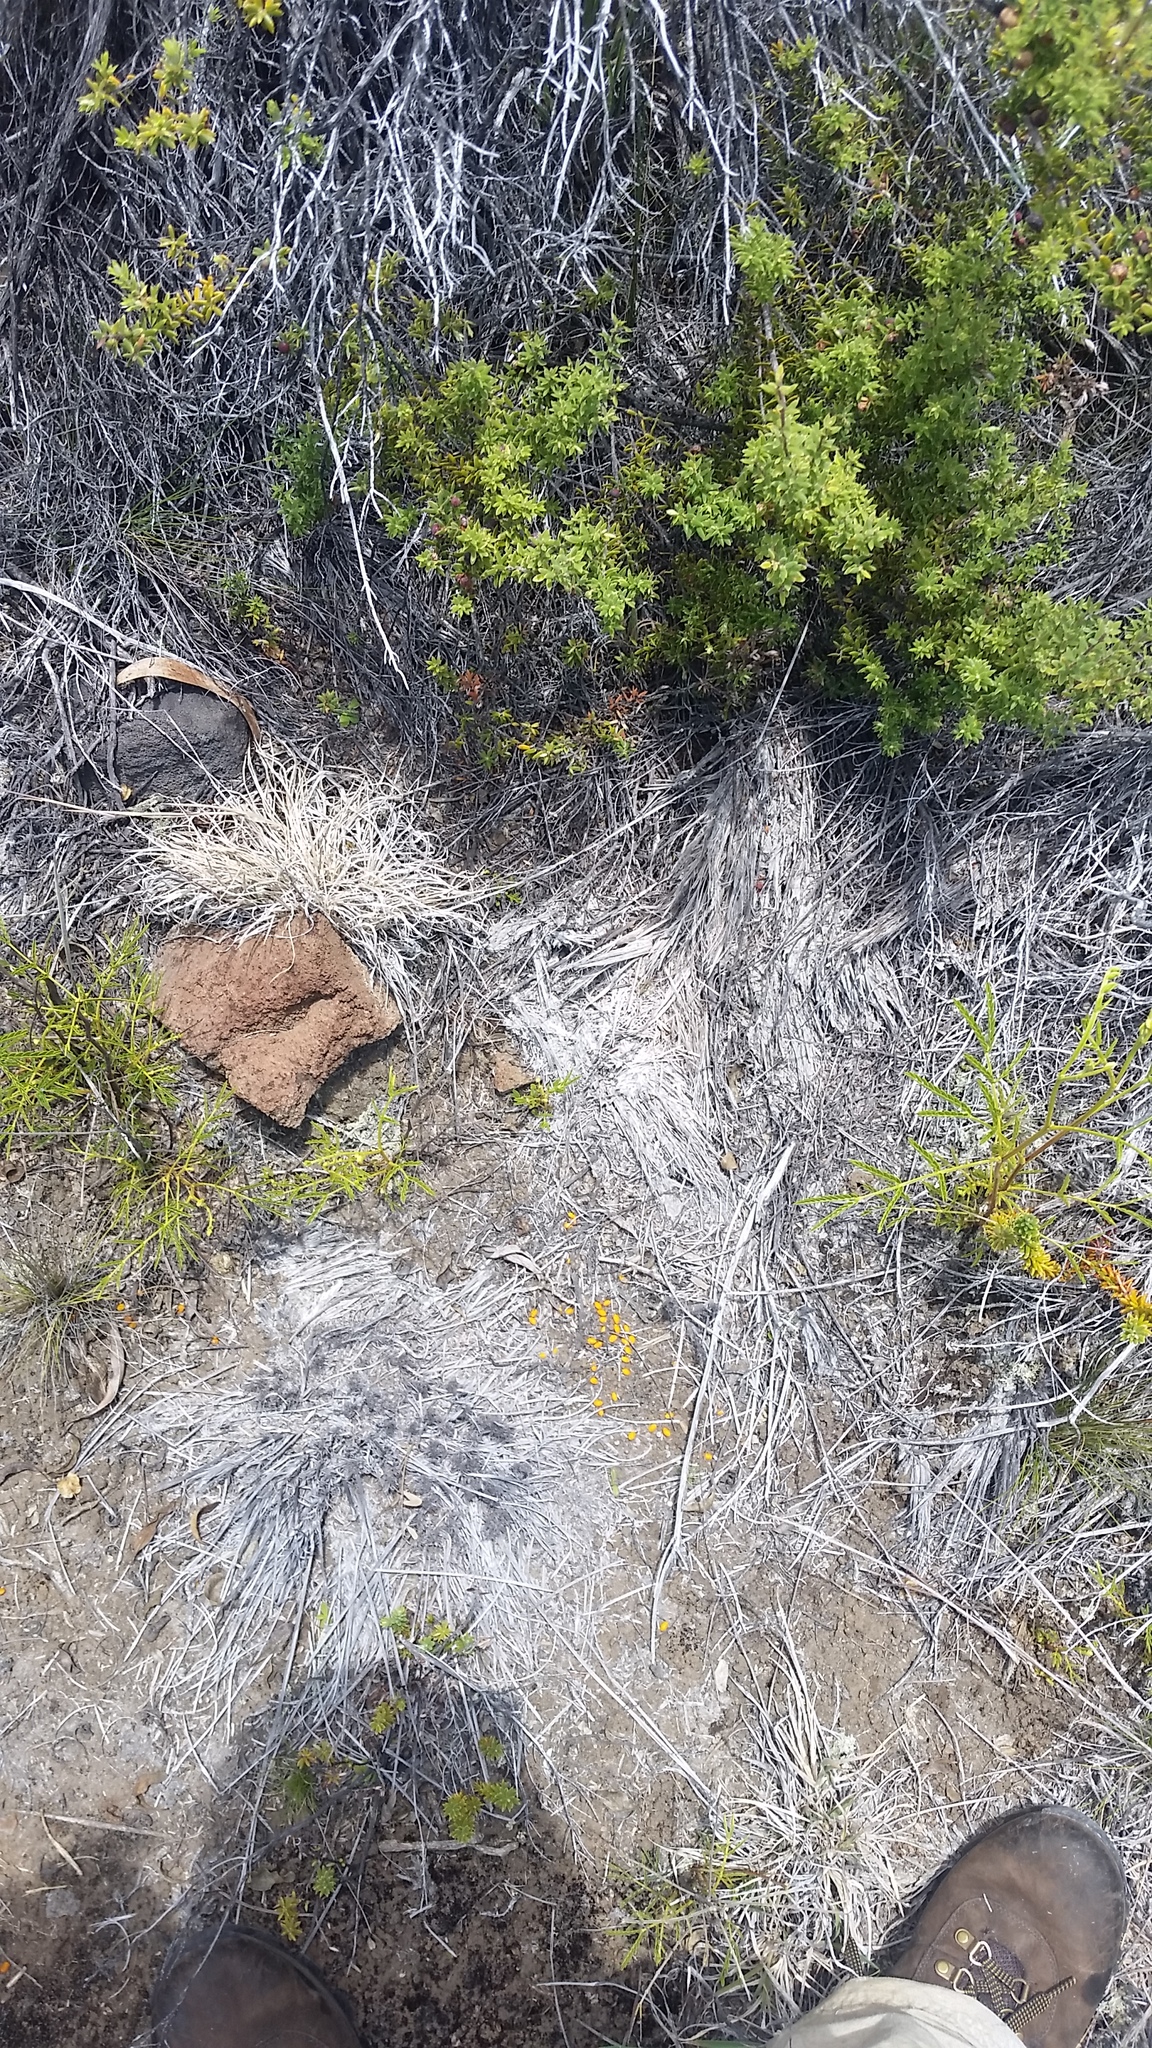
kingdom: Plantae
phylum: Tracheophyta
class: Magnoliopsida
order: Fabales
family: Fabaceae
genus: Sophora
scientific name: Sophora chrysophylla
